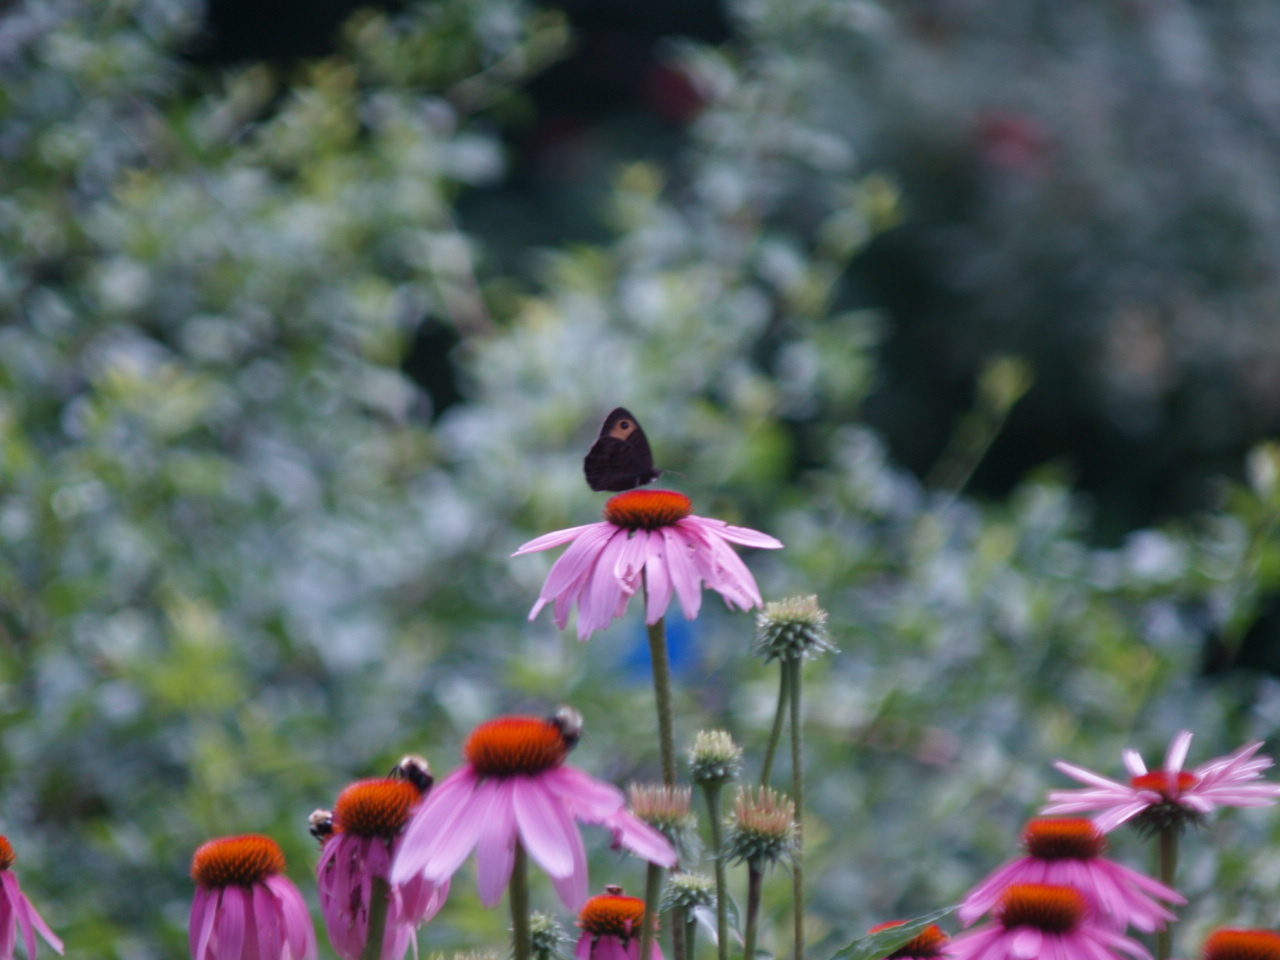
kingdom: Animalia
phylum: Arthropoda
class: Insecta
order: Lepidoptera
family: Nymphalidae
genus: Cercyonis
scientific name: Cercyonis pegala
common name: Common wood-nymph
